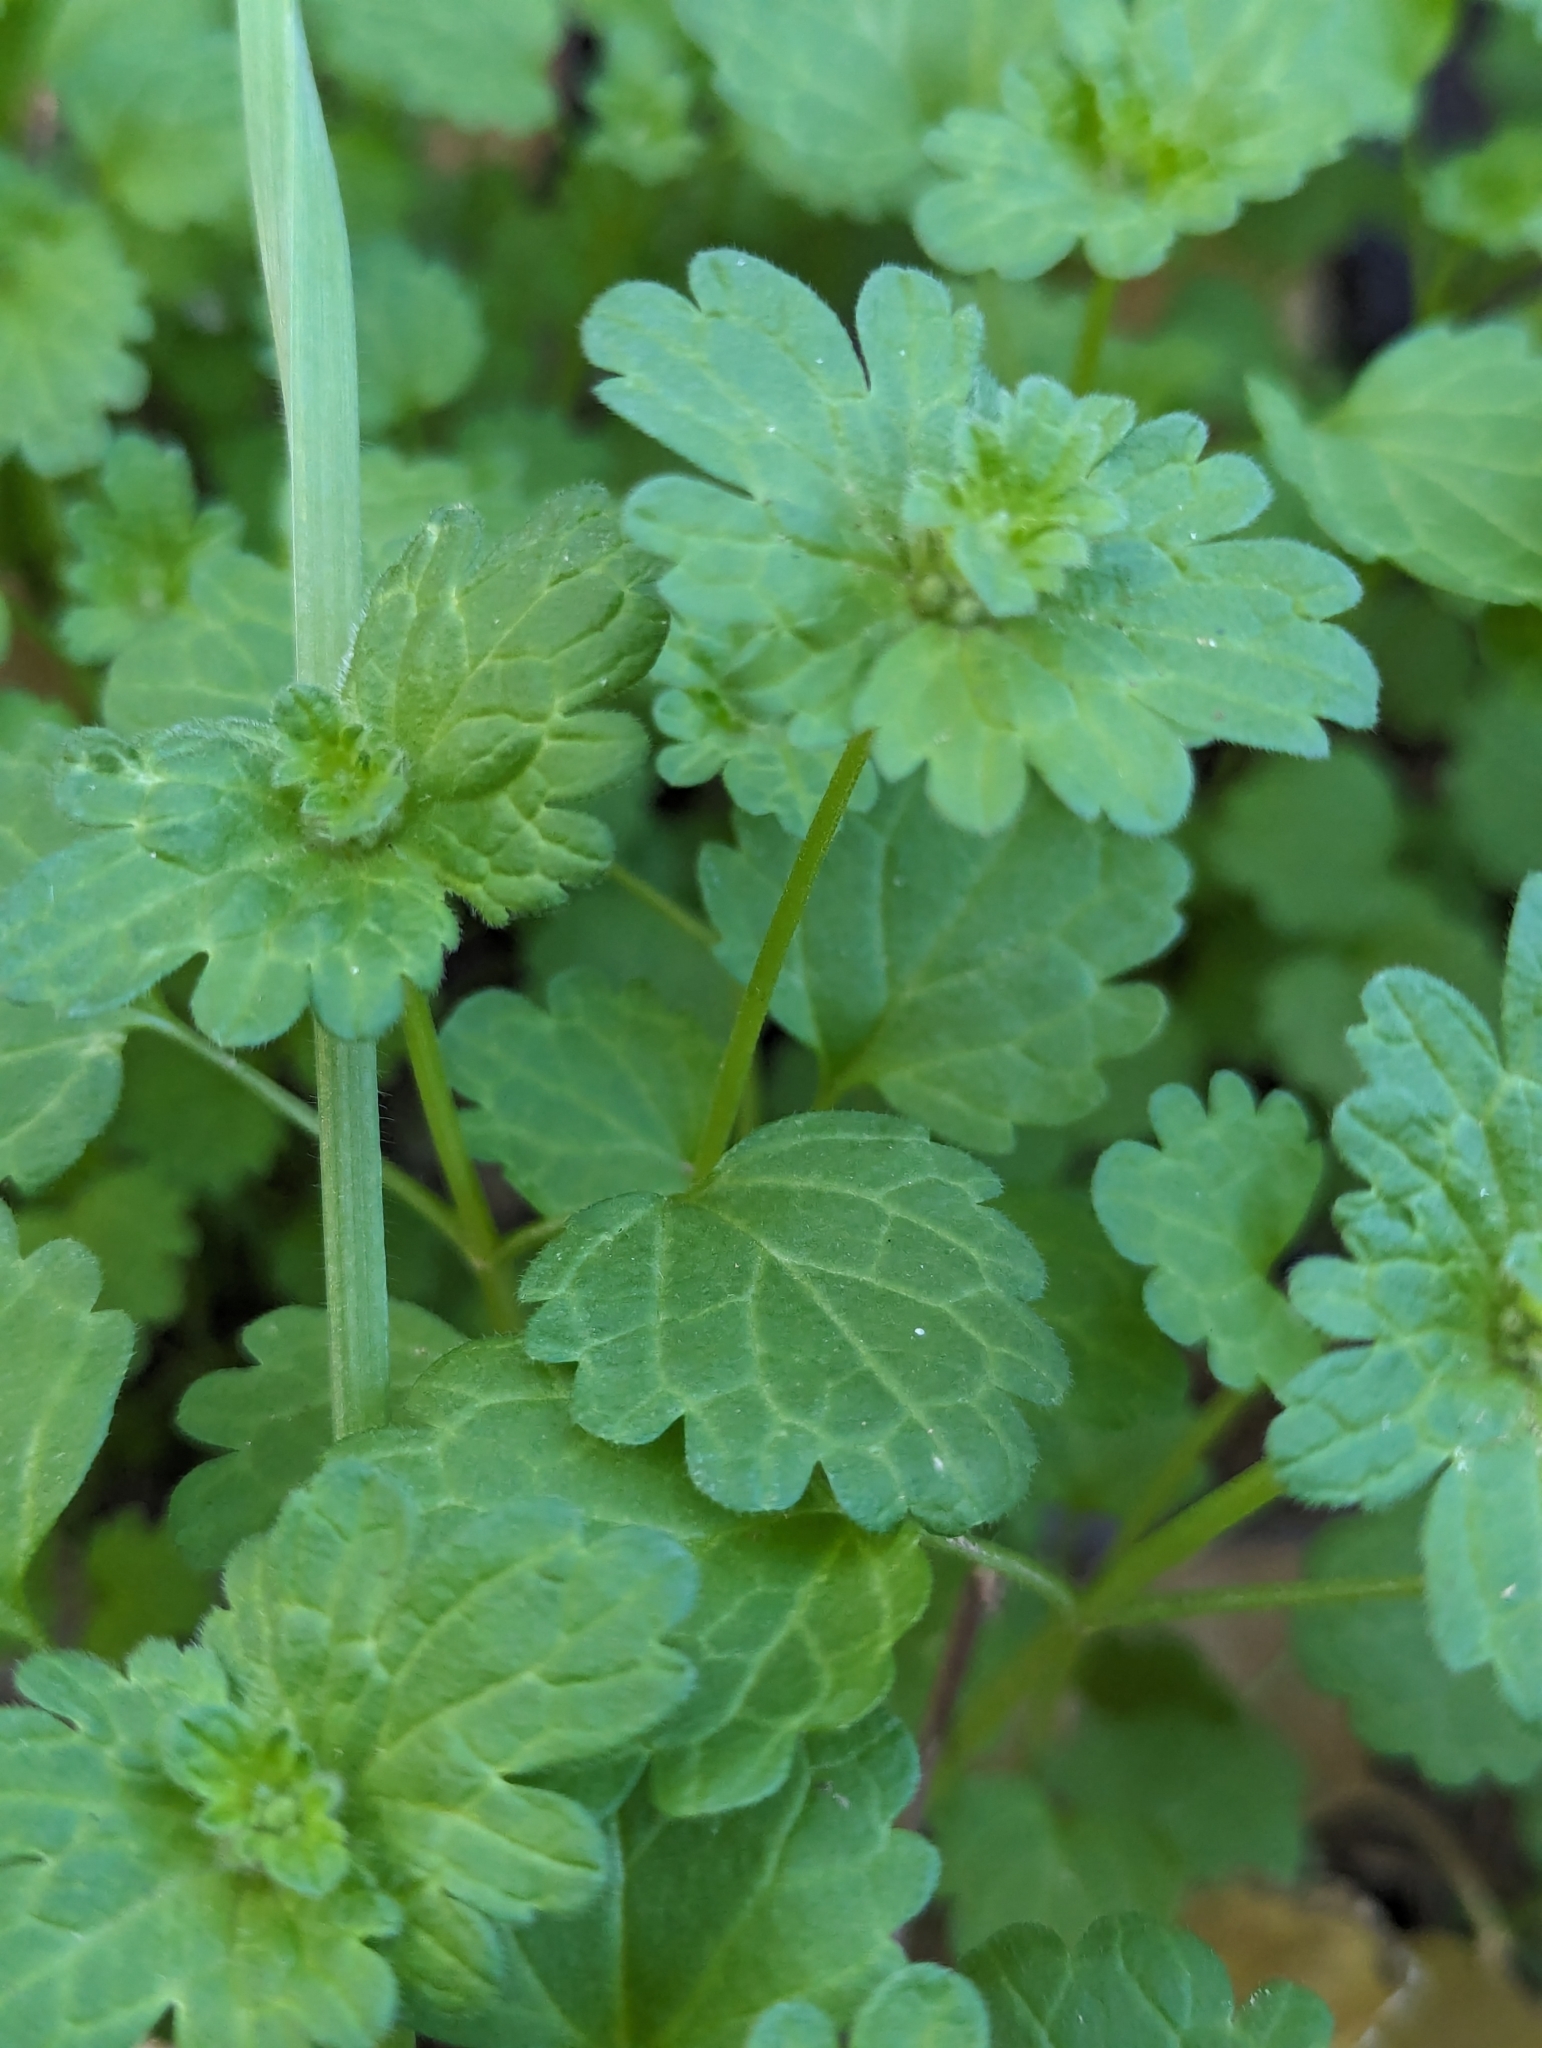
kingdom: Plantae
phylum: Tracheophyta
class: Magnoliopsida
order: Lamiales
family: Lamiaceae
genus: Lamium
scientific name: Lamium amplexicaule
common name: Henbit dead-nettle
